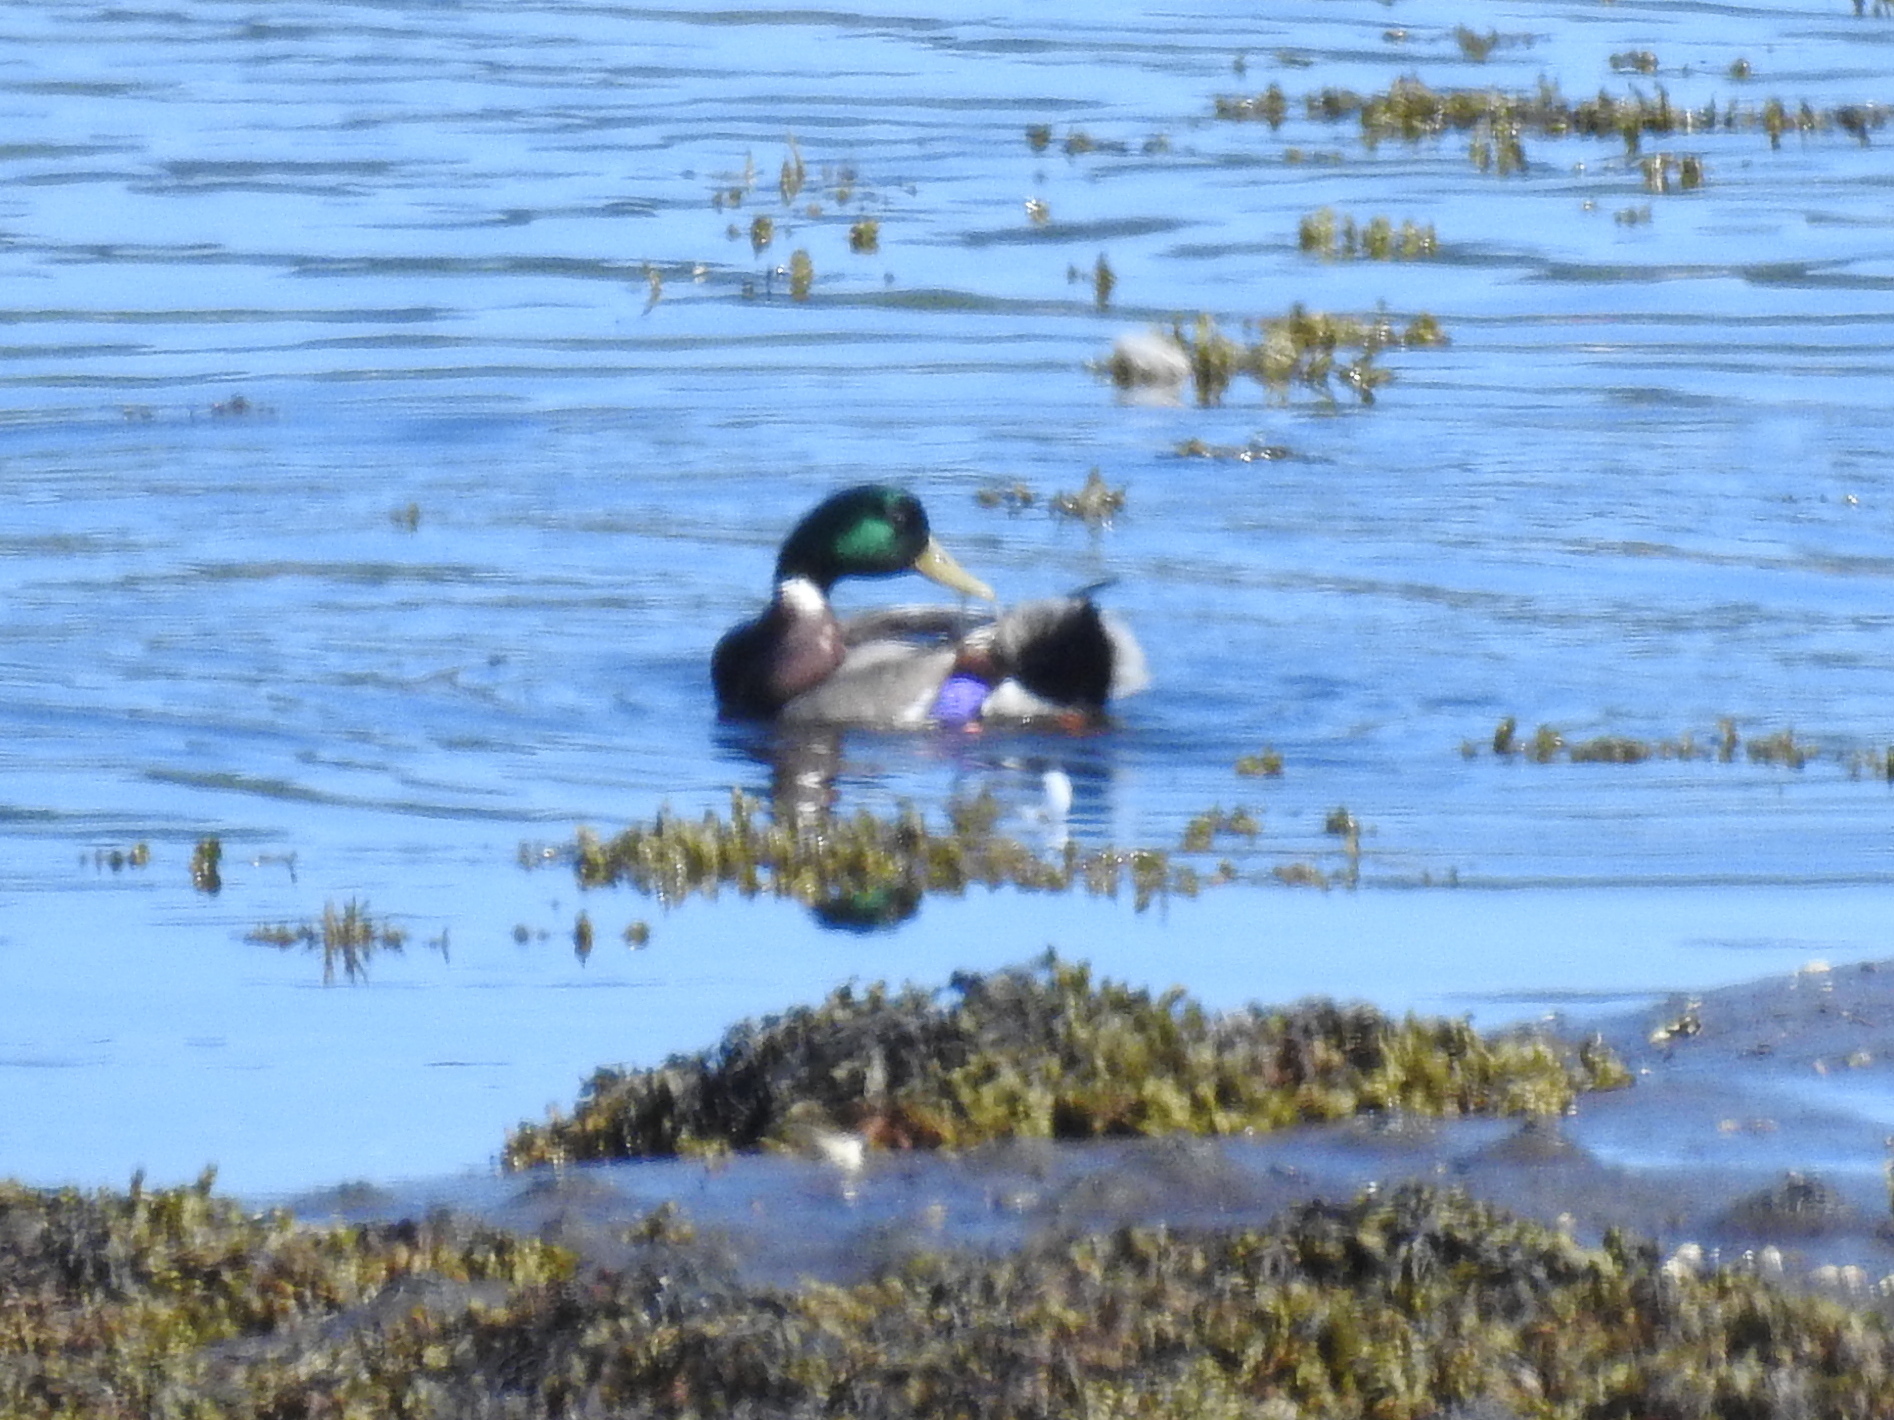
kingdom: Animalia
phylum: Chordata
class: Aves
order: Anseriformes
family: Anatidae
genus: Anas
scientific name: Anas platyrhynchos
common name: Mallard
